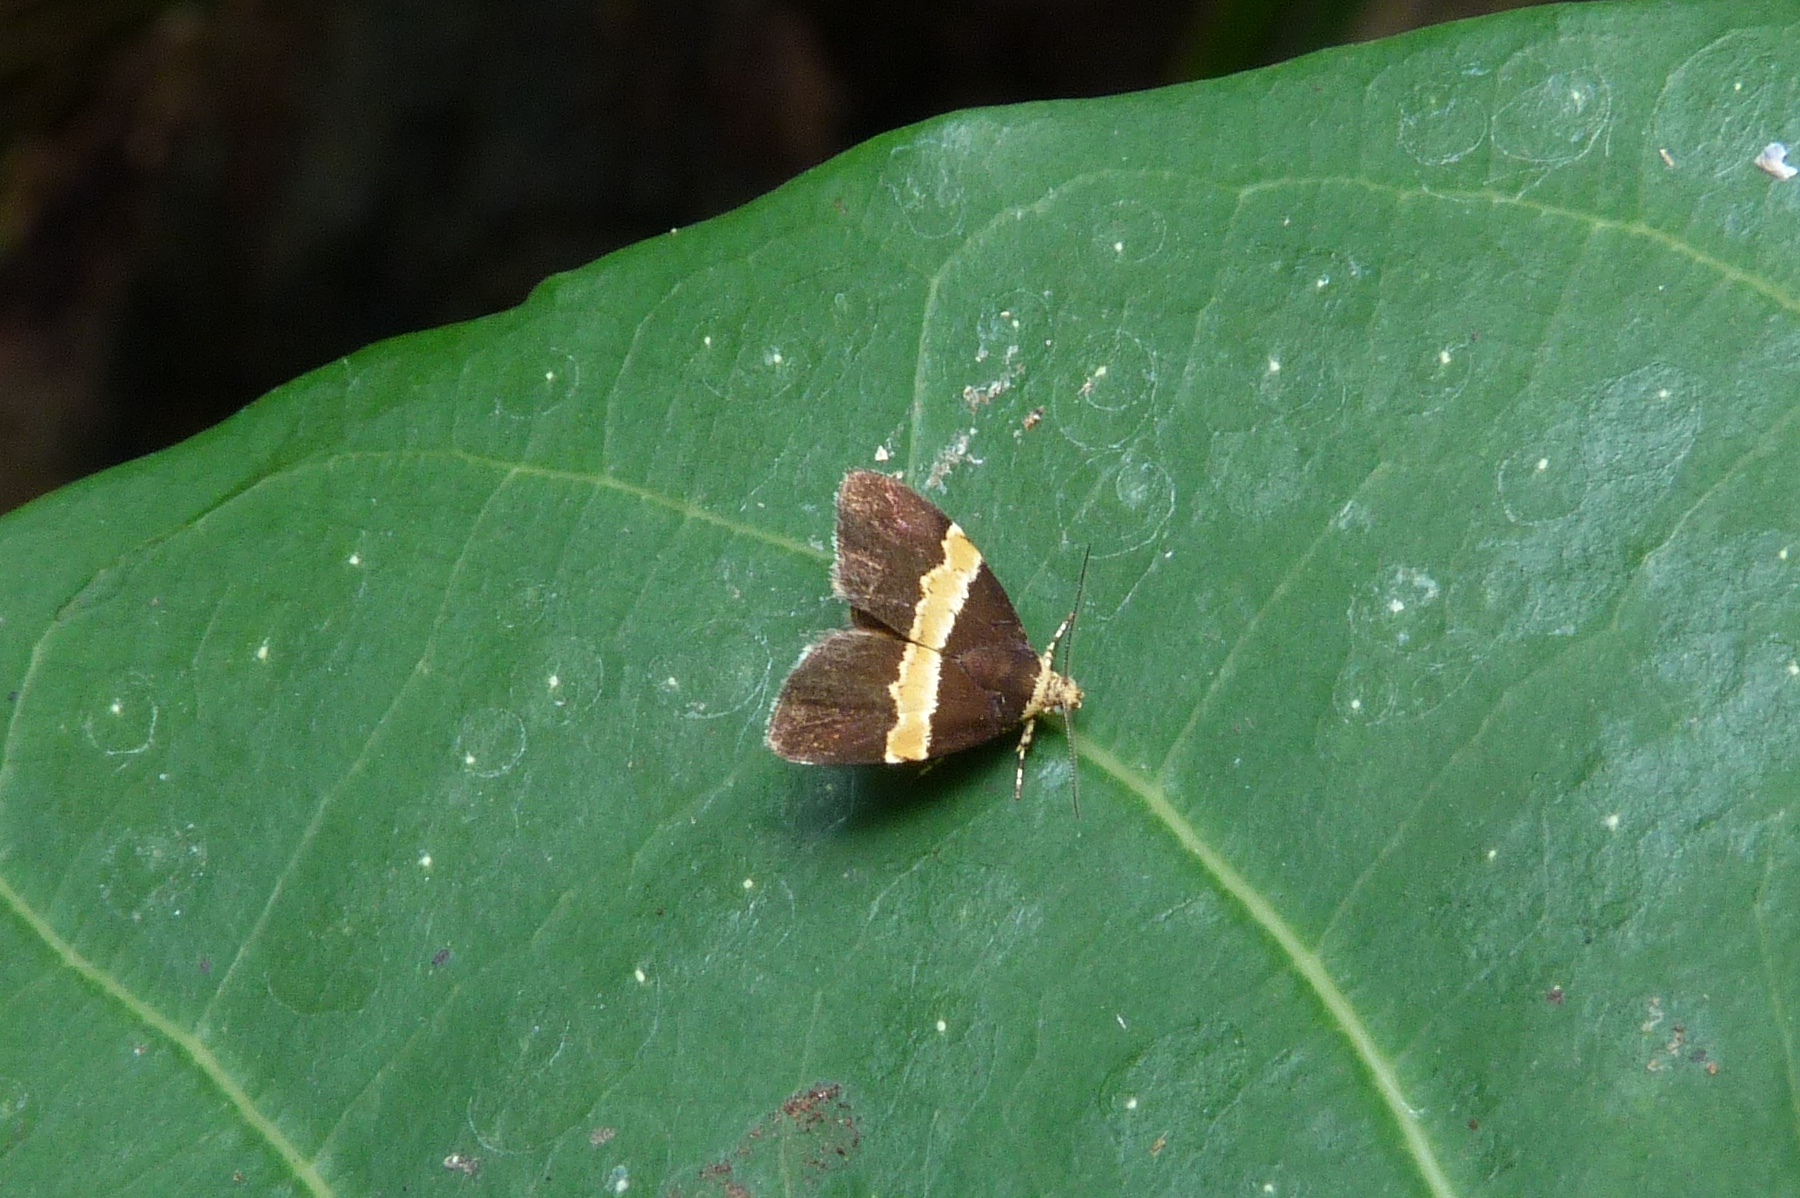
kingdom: Animalia
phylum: Arthropoda
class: Insecta
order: Lepidoptera
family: Choreutidae
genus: Choreutis
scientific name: Choreutis basalis
